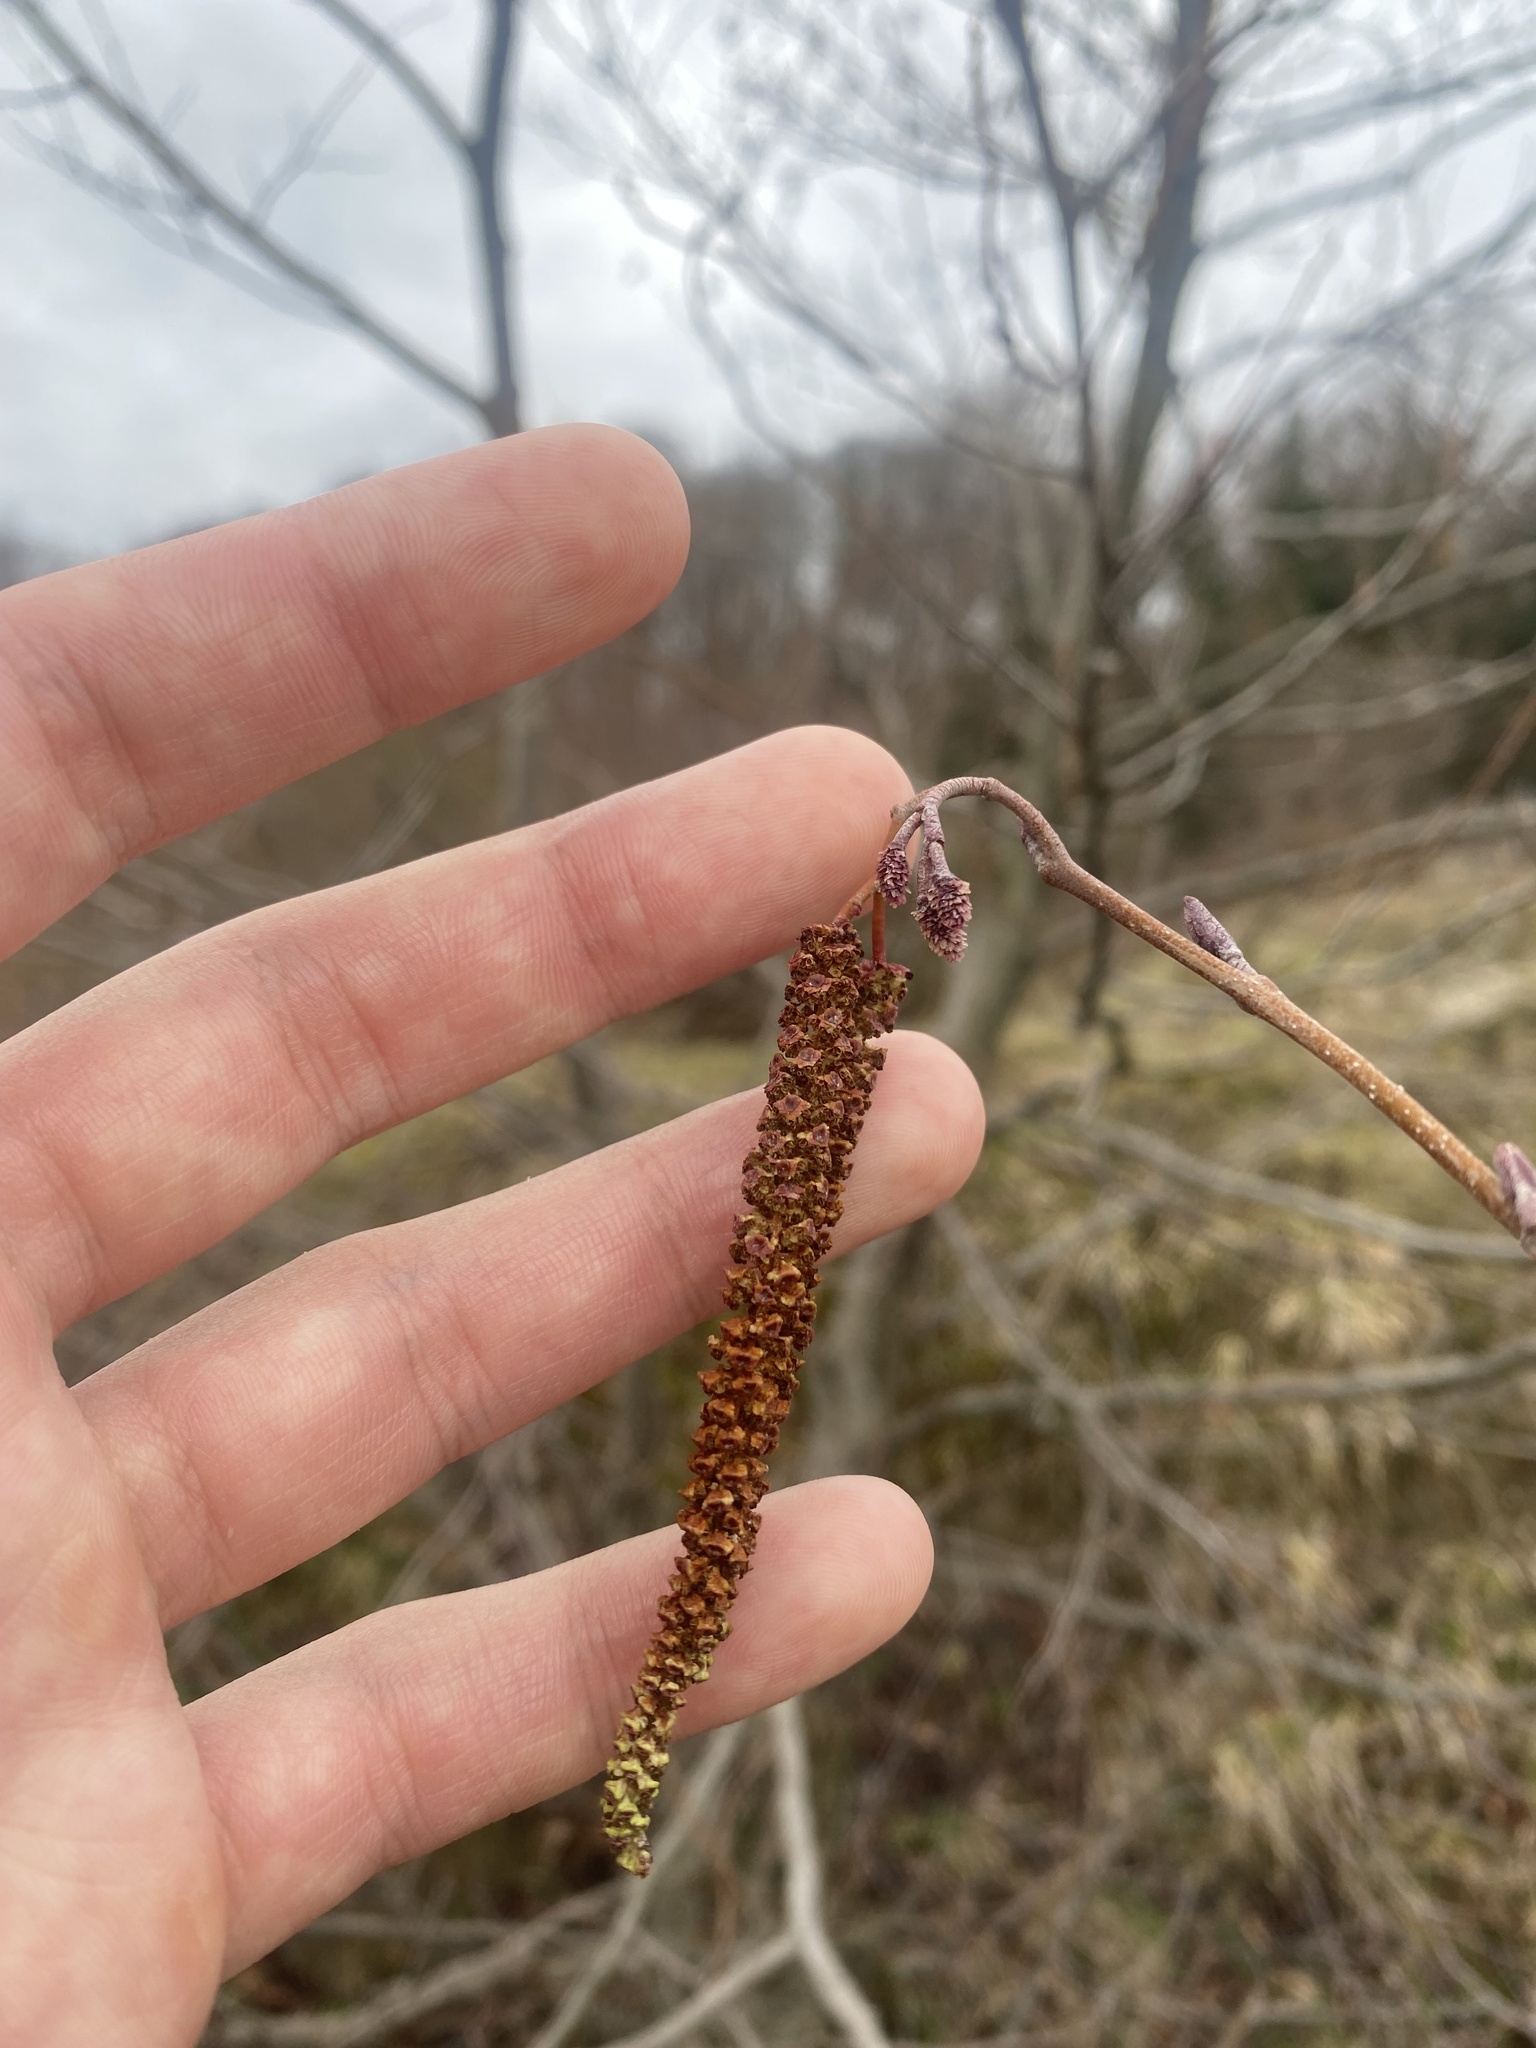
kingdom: Plantae
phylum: Tracheophyta
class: Magnoliopsida
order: Fagales
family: Betulaceae
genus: Alnus
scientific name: Alnus glutinosa
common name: Black alder
